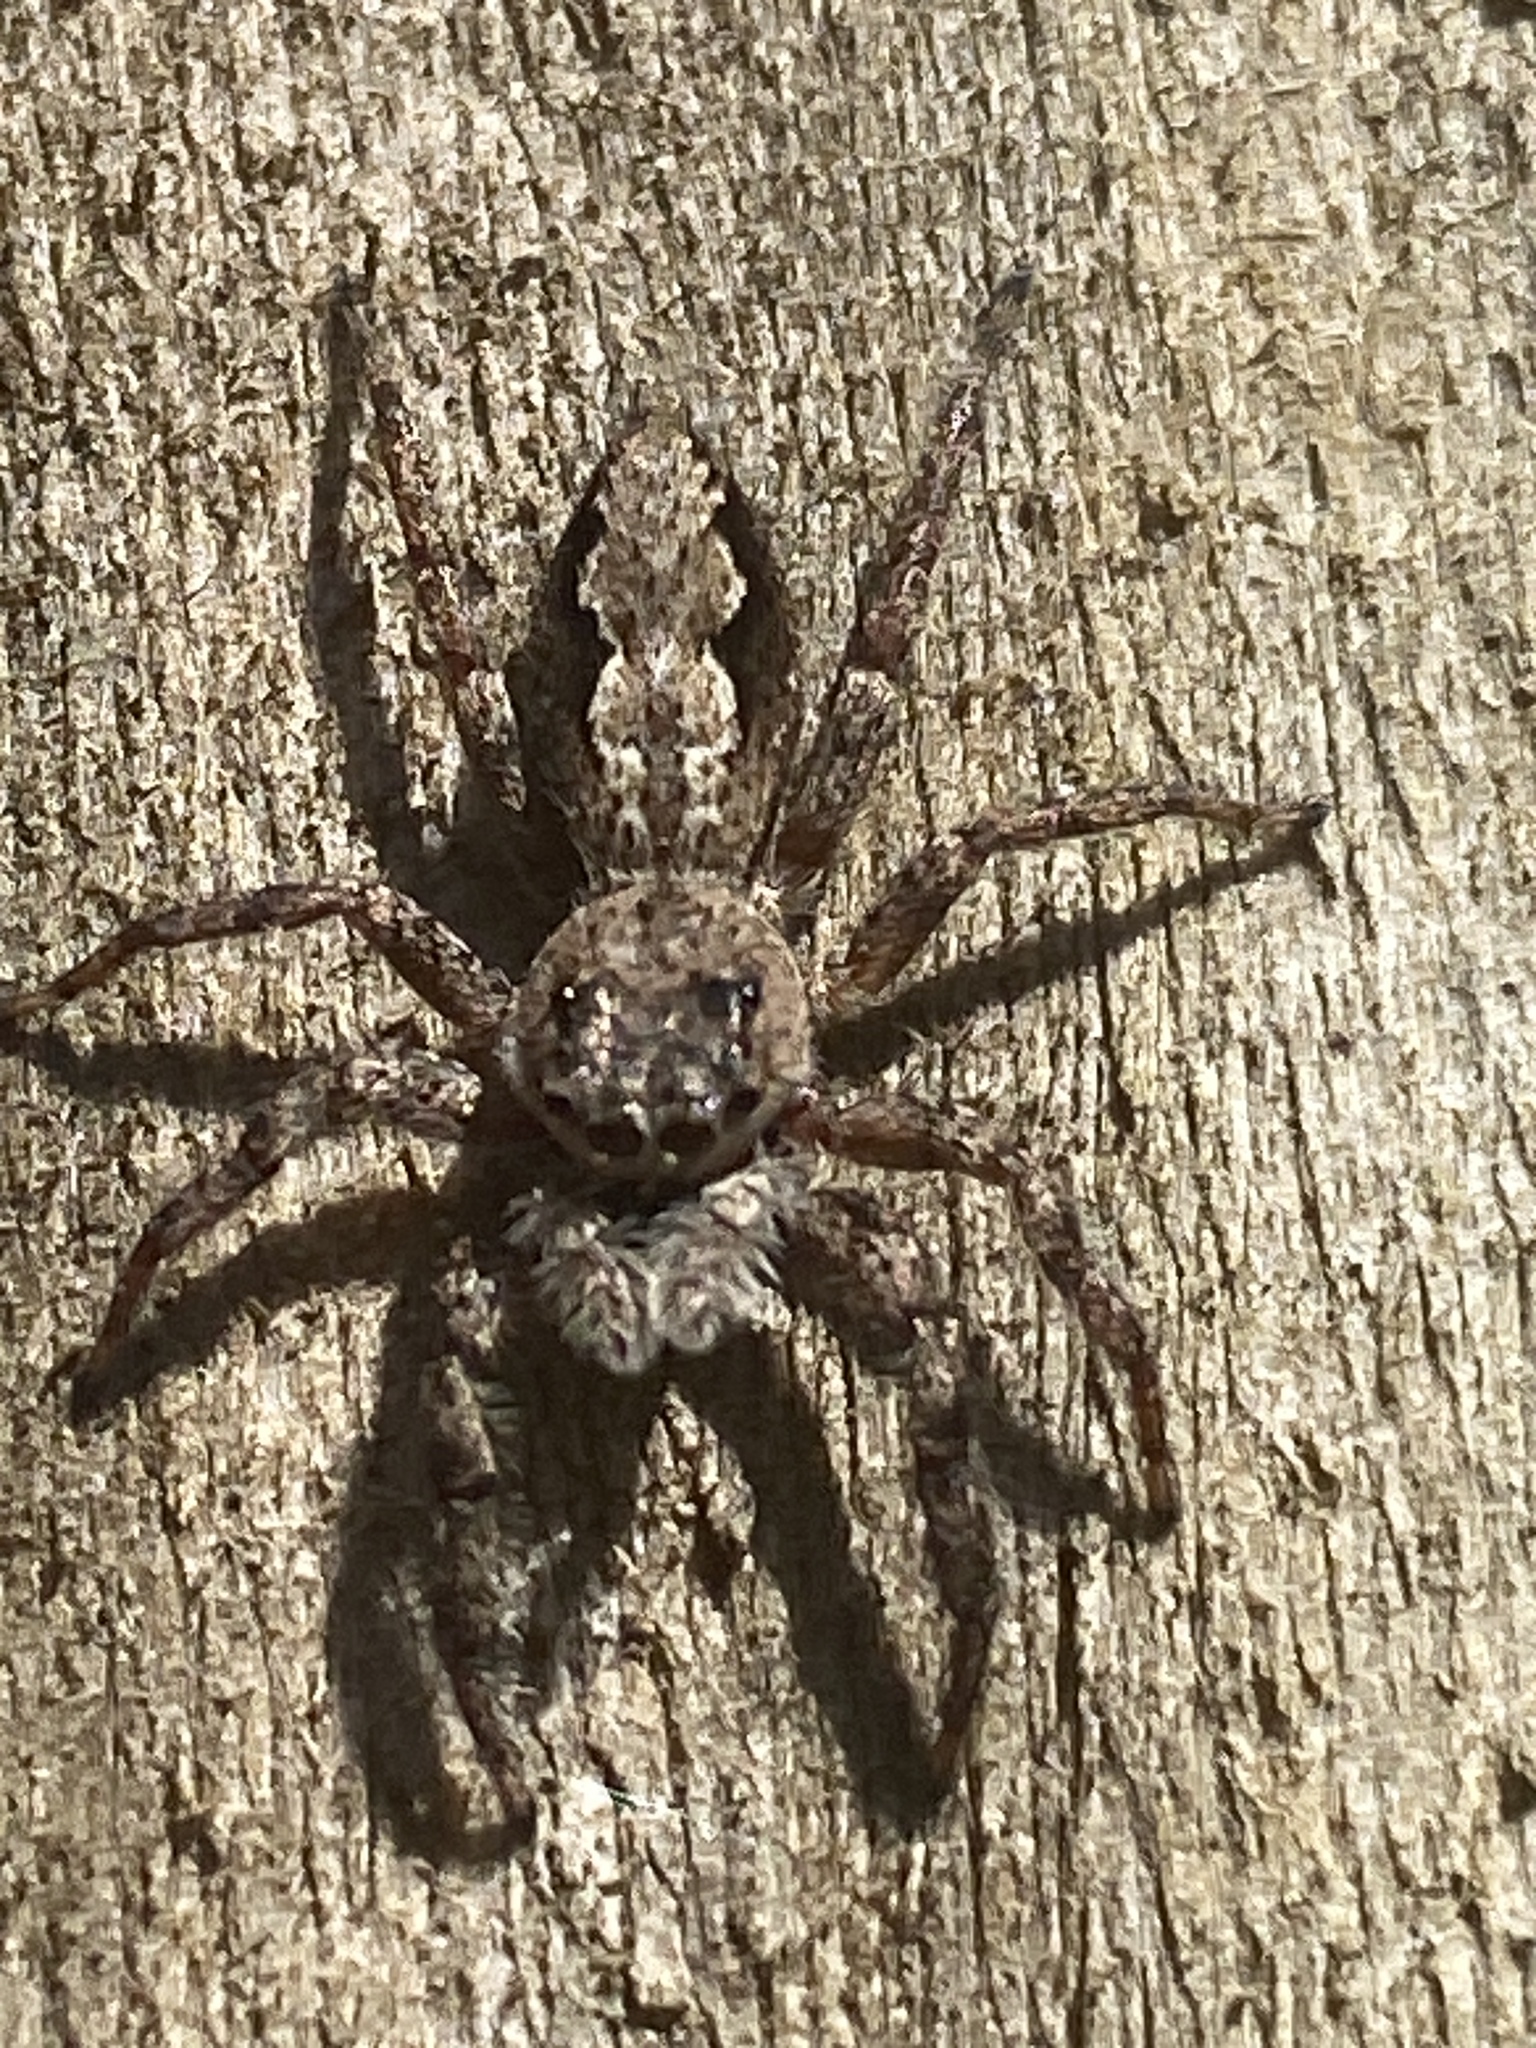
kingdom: Animalia
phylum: Arthropoda
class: Arachnida
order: Araneae
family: Salticidae
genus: Platycryptus
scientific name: Platycryptus undatus
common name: Tan jumping spider
